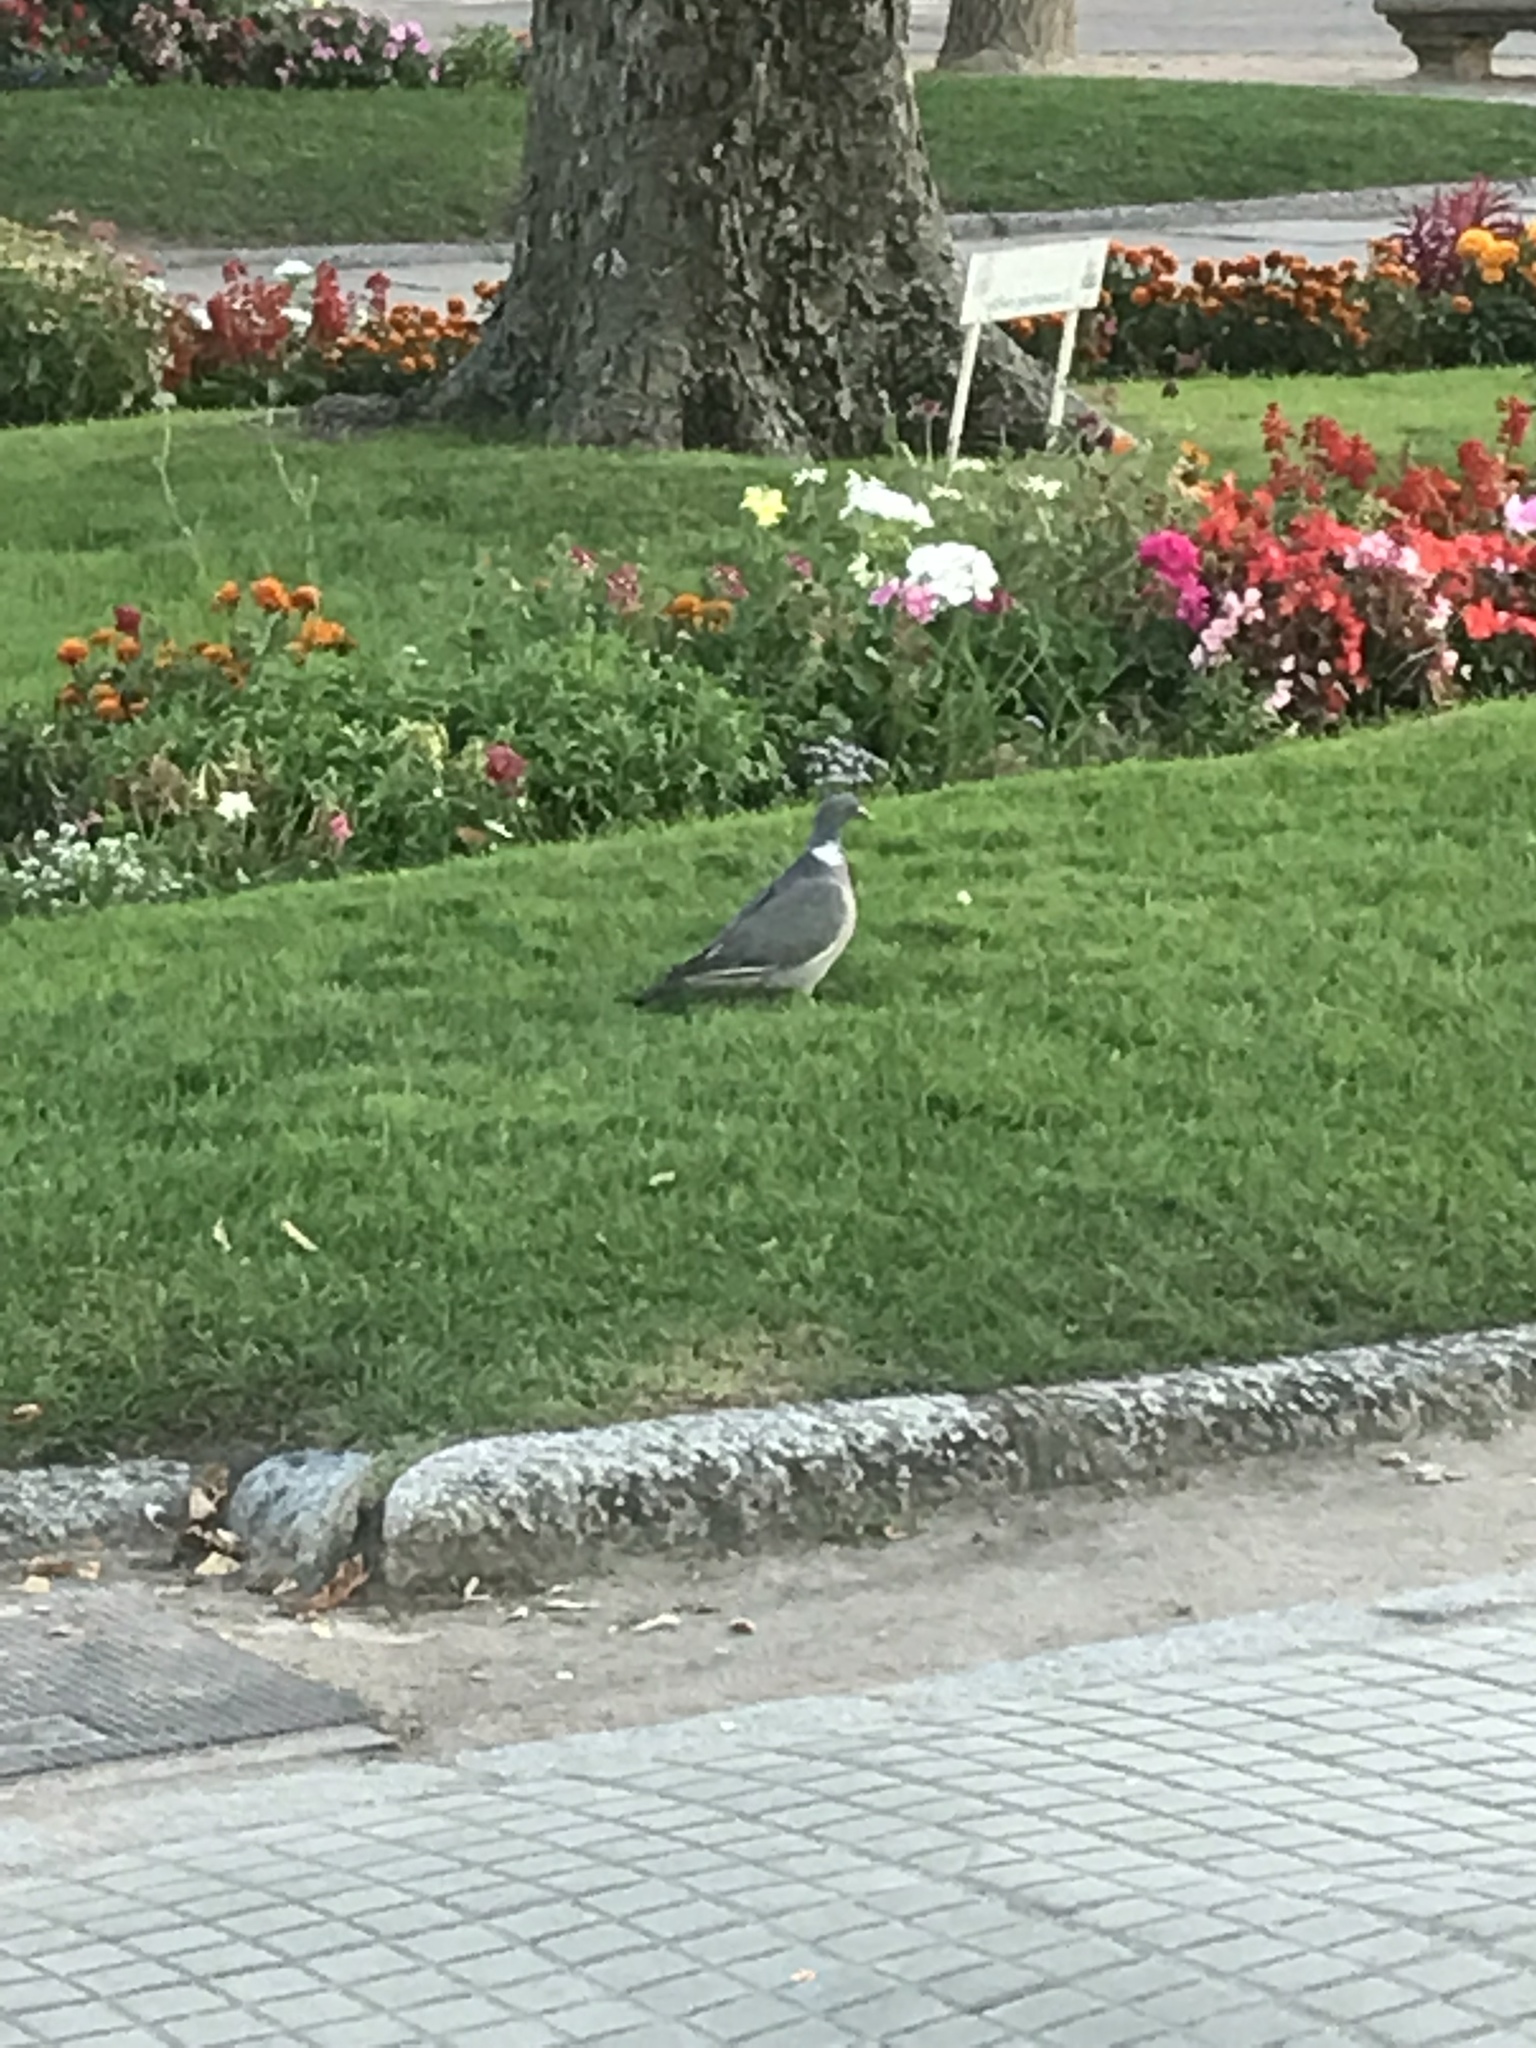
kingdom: Animalia
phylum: Chordata
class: Aves
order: Columbiformes
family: Columbidae
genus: Columba
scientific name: Columba palumbus
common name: Common wood pigeon
